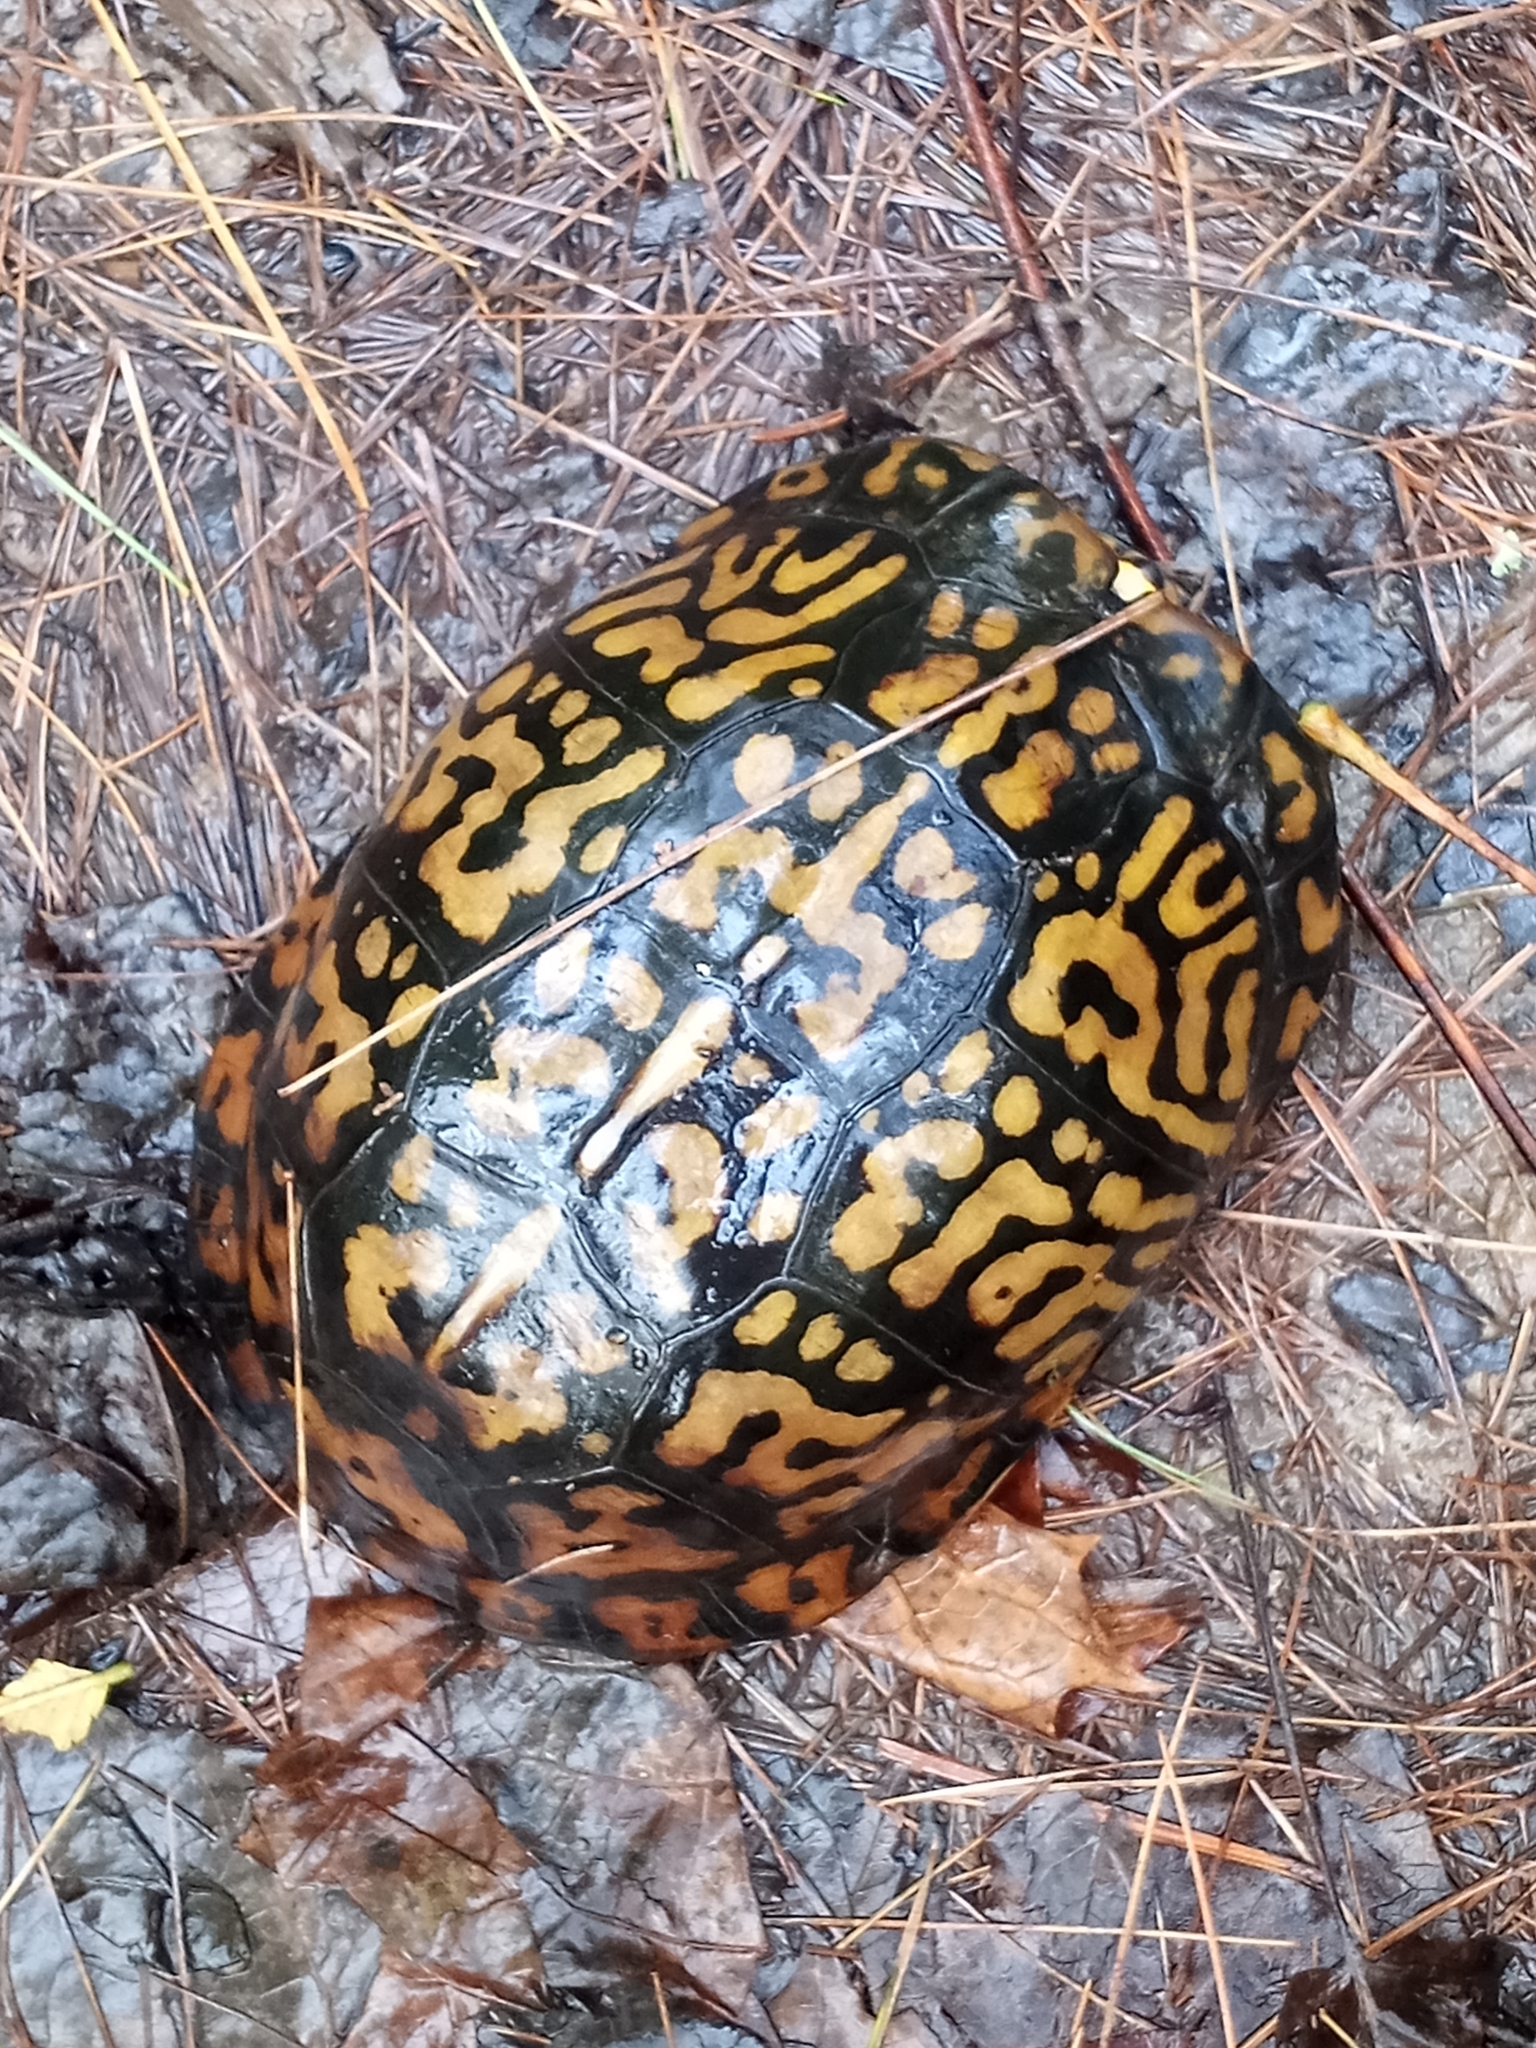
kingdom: Animalia
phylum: Chordata
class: Testudines
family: Emydidae
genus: Terrapene
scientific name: Terrapene carolina
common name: Common box turtle
